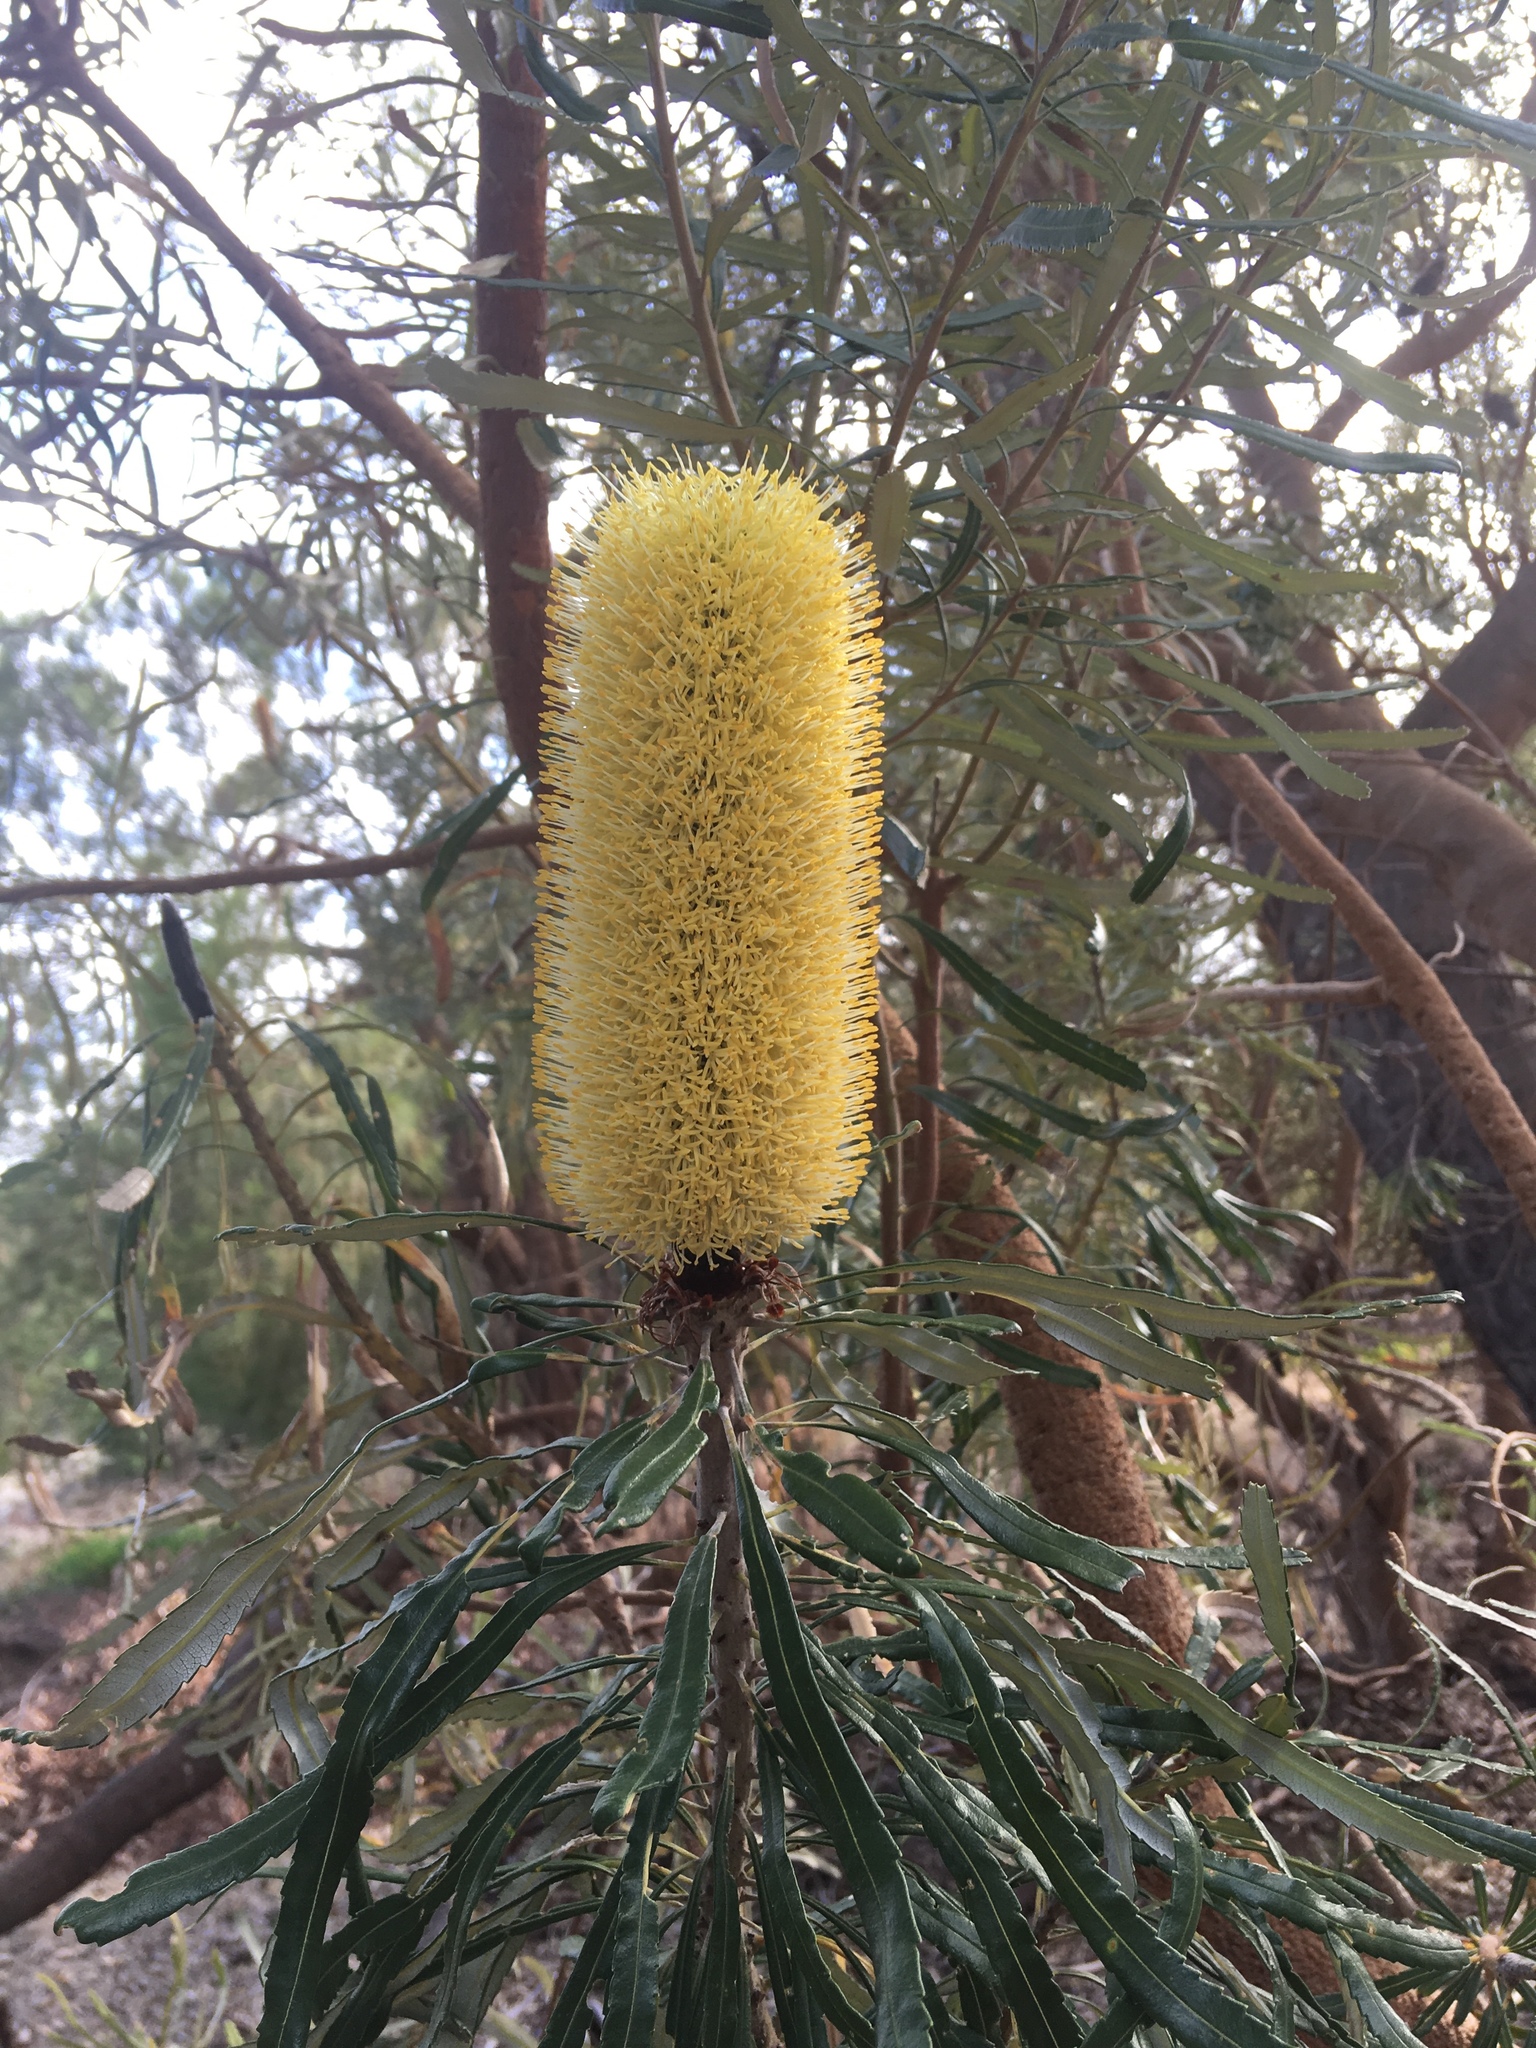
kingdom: Plantae
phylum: Tracheophyta
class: Magnoliopsida
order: Proteales
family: Proteaceae
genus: Banksia
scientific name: Banksia attenuata
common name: Coast banksia
